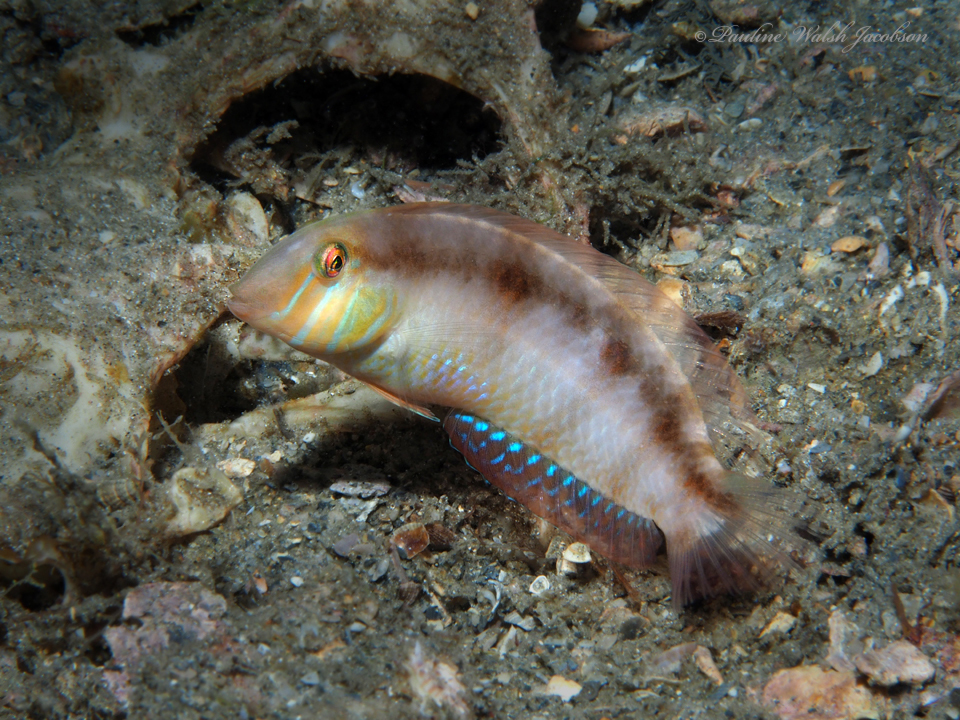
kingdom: Animalia
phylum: Chordata
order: Perciformes
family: Labridae
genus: Xyrichtys
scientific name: Xyrichtys novacula
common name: Pearly razorfish
